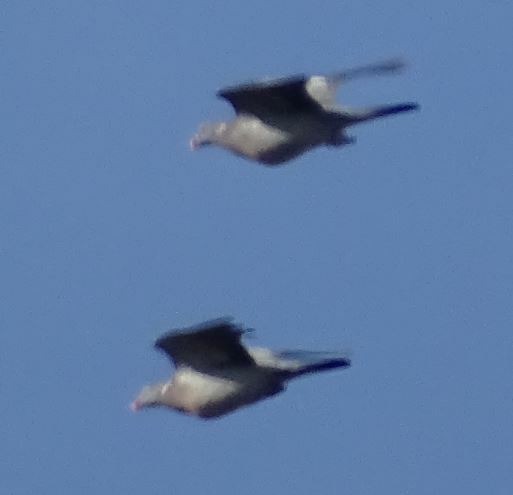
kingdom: Animalia
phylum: Chordata
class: Aves
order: Columbiformes
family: Columbidae
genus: Columba
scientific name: Columba palumbus
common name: Common wood pigeon
